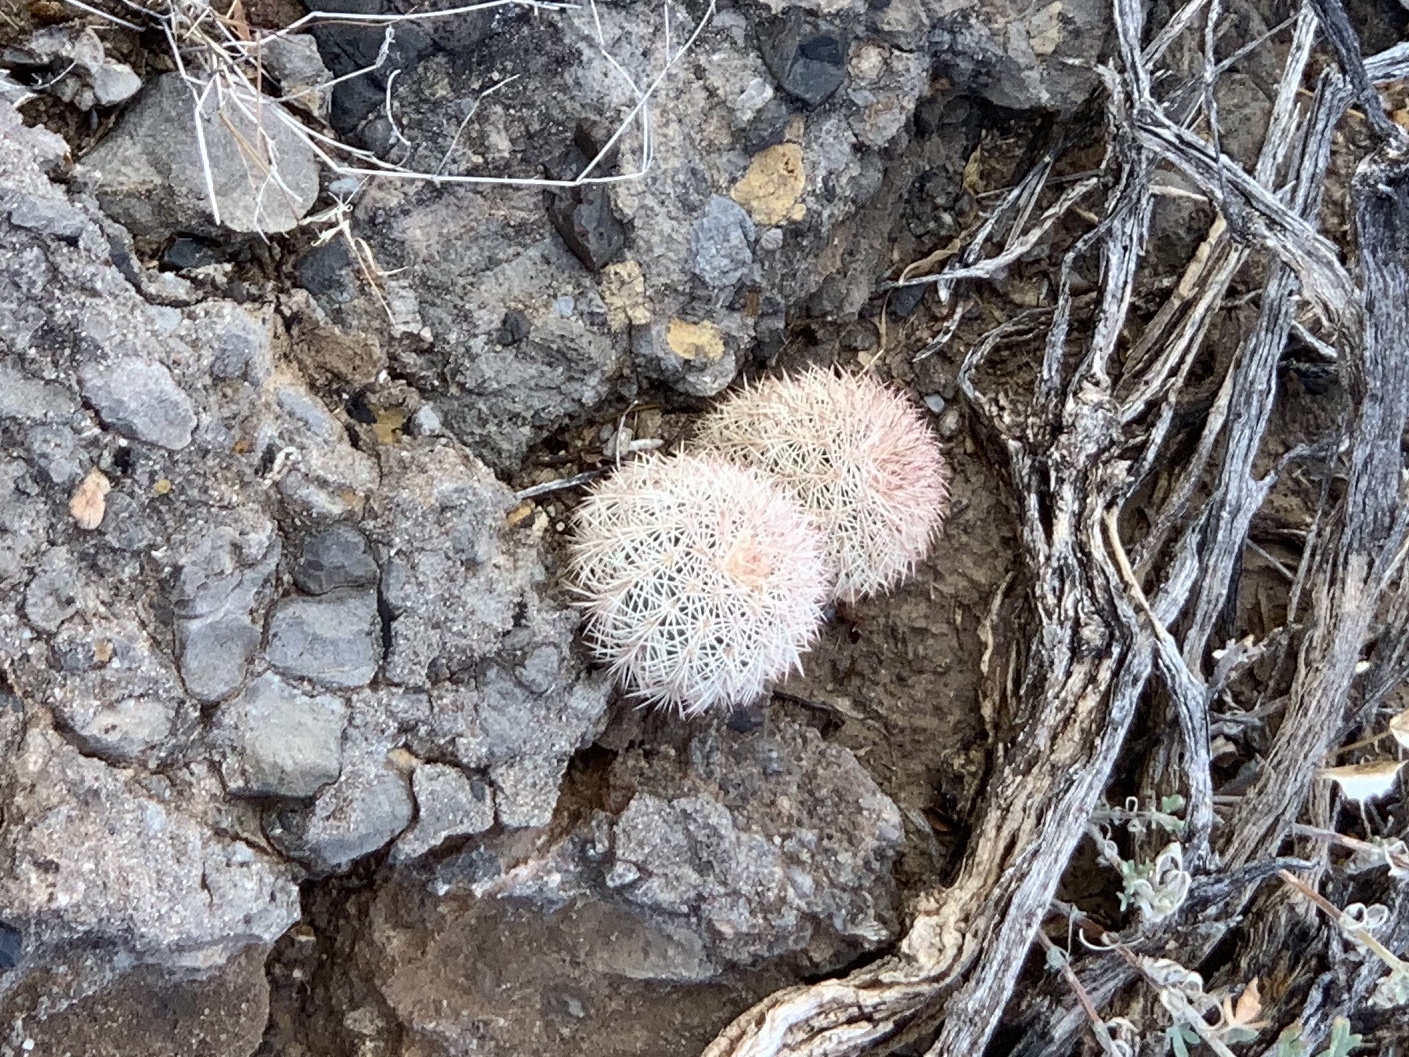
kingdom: Plantae
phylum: Tracheophyta
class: Magnoliopsida
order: Caryophyllales
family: Cactaceae
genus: Echinocereus
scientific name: Echinocereus dasyacanthus
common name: Spiny hedgehog cactus
